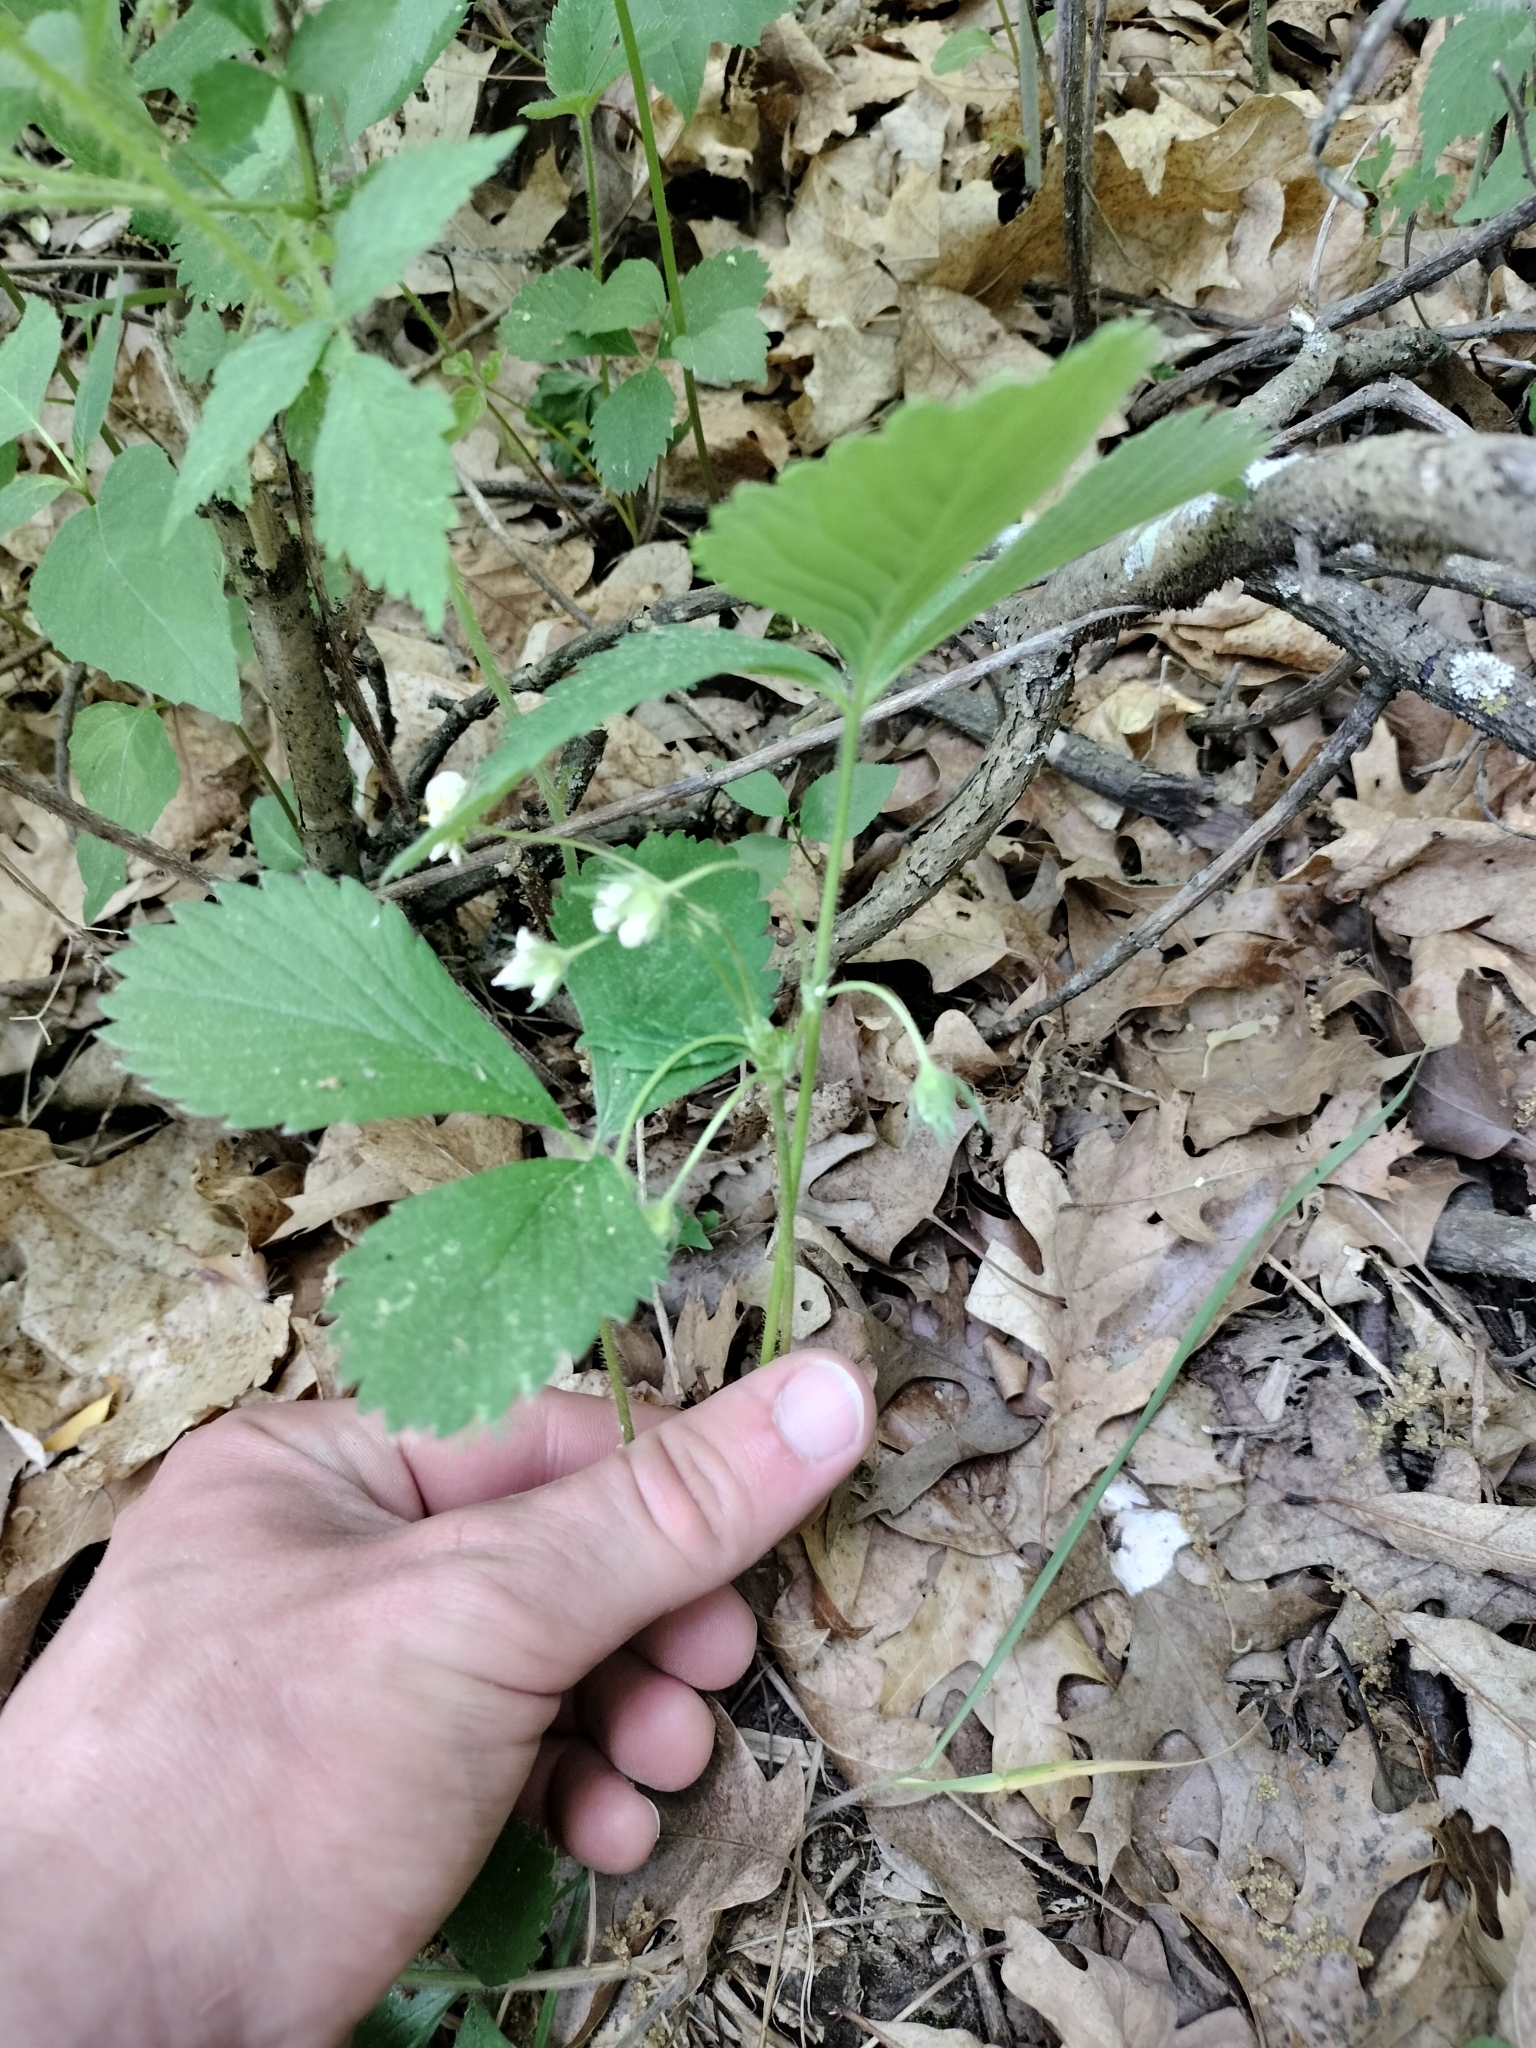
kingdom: Plantae
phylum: Tracheophyta
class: Magnoliopsida
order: Rosales
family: Rosaceae
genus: Fragaria
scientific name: Fragaria virginiana
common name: Thickleaved wild strawberry
